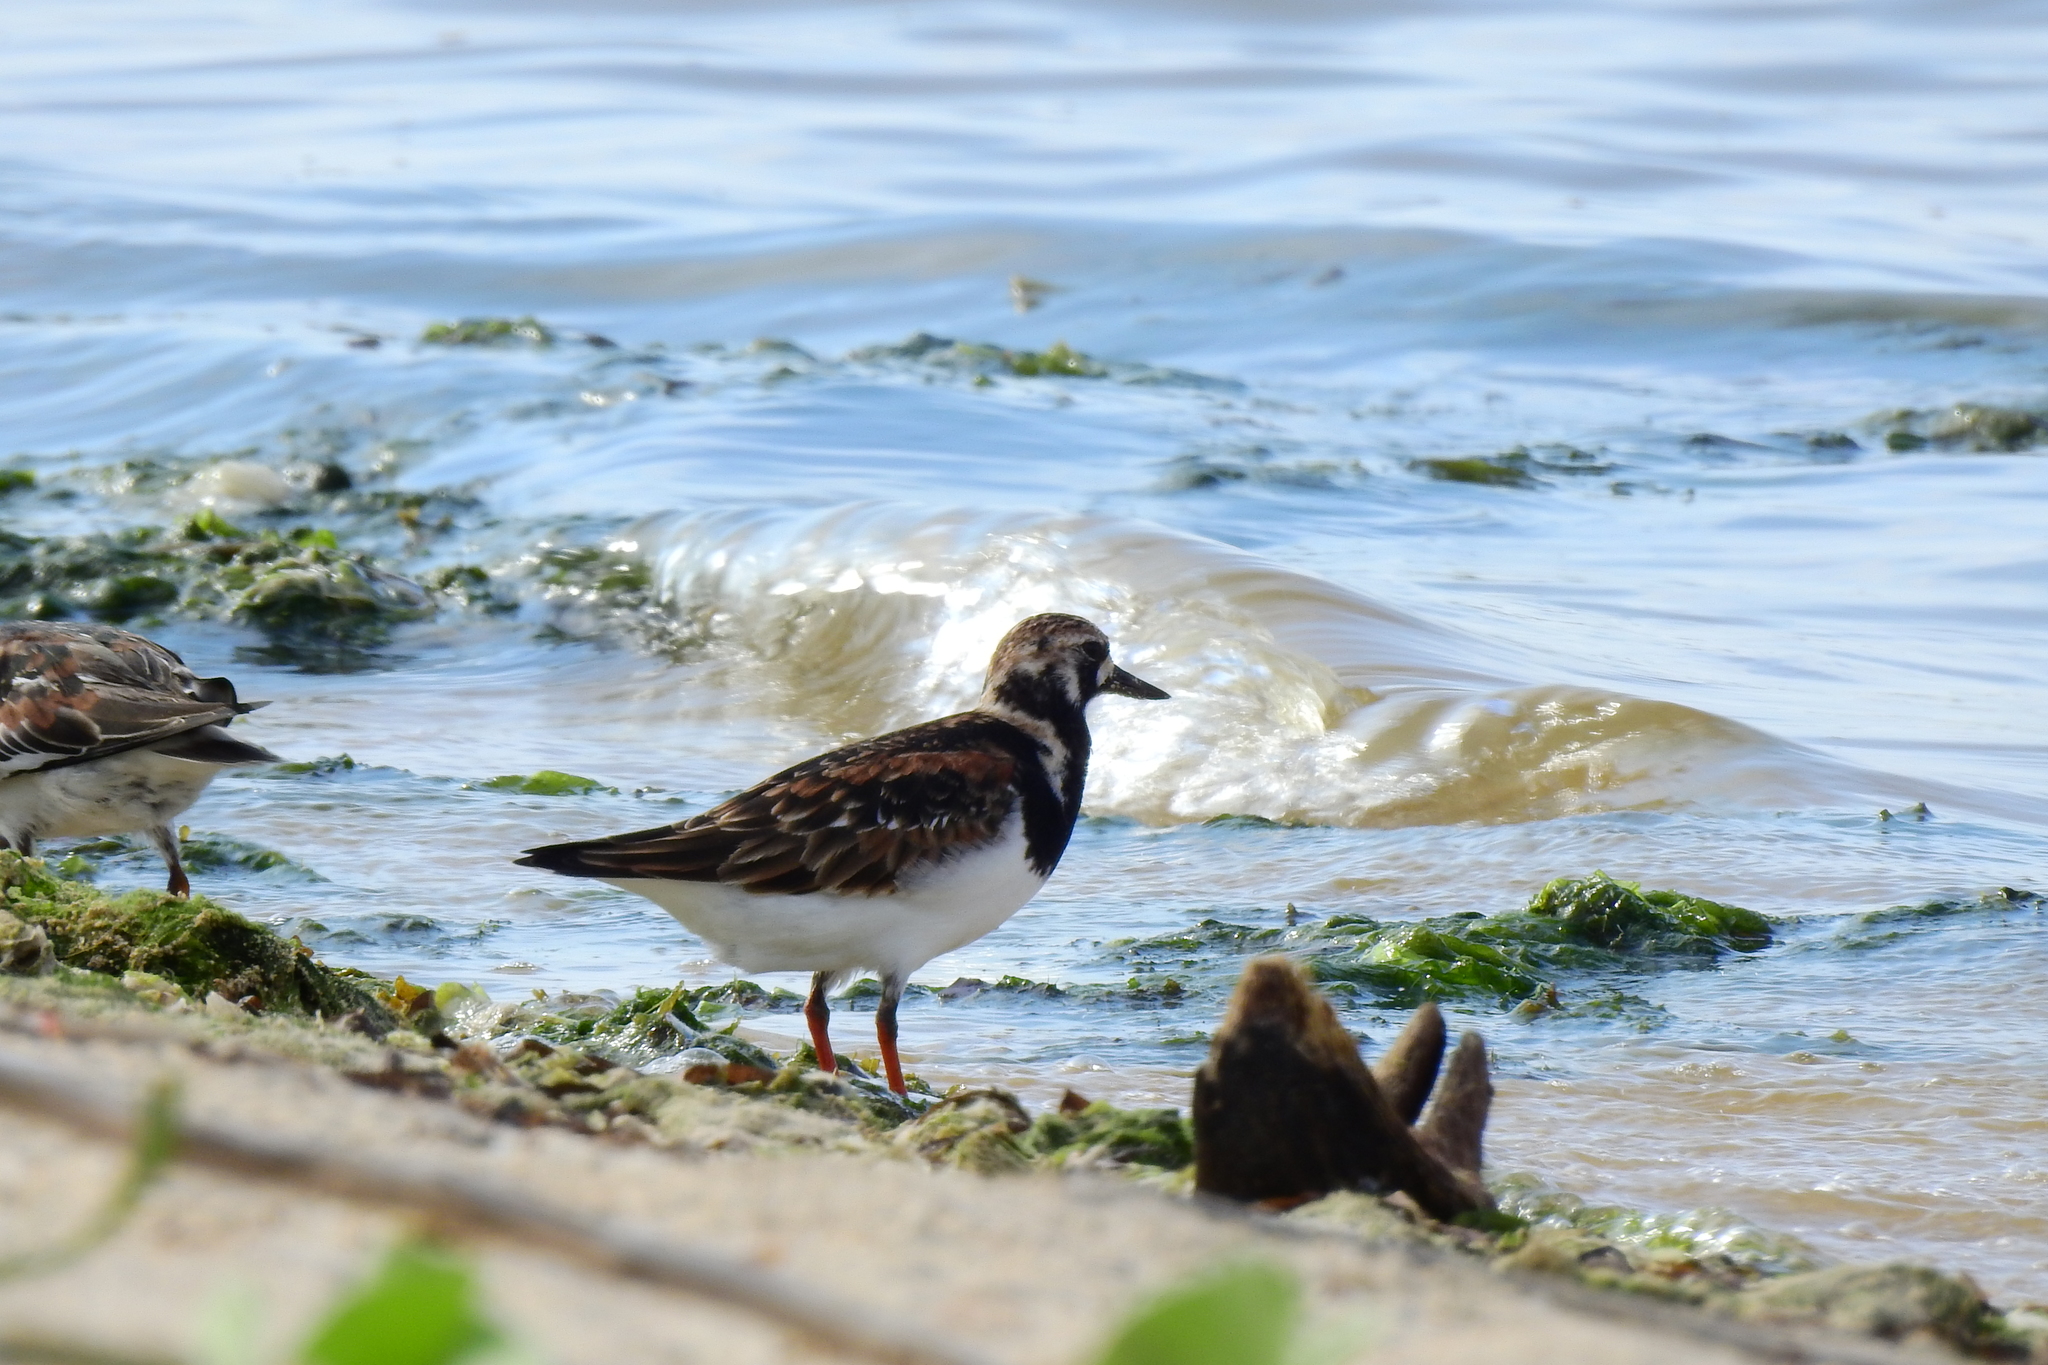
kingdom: Animalia
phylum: Chordata
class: Aves
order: Charadriiformes
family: Scolopacidae
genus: Arenaria
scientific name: Arenaria interpres
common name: Ruddy turnstone
